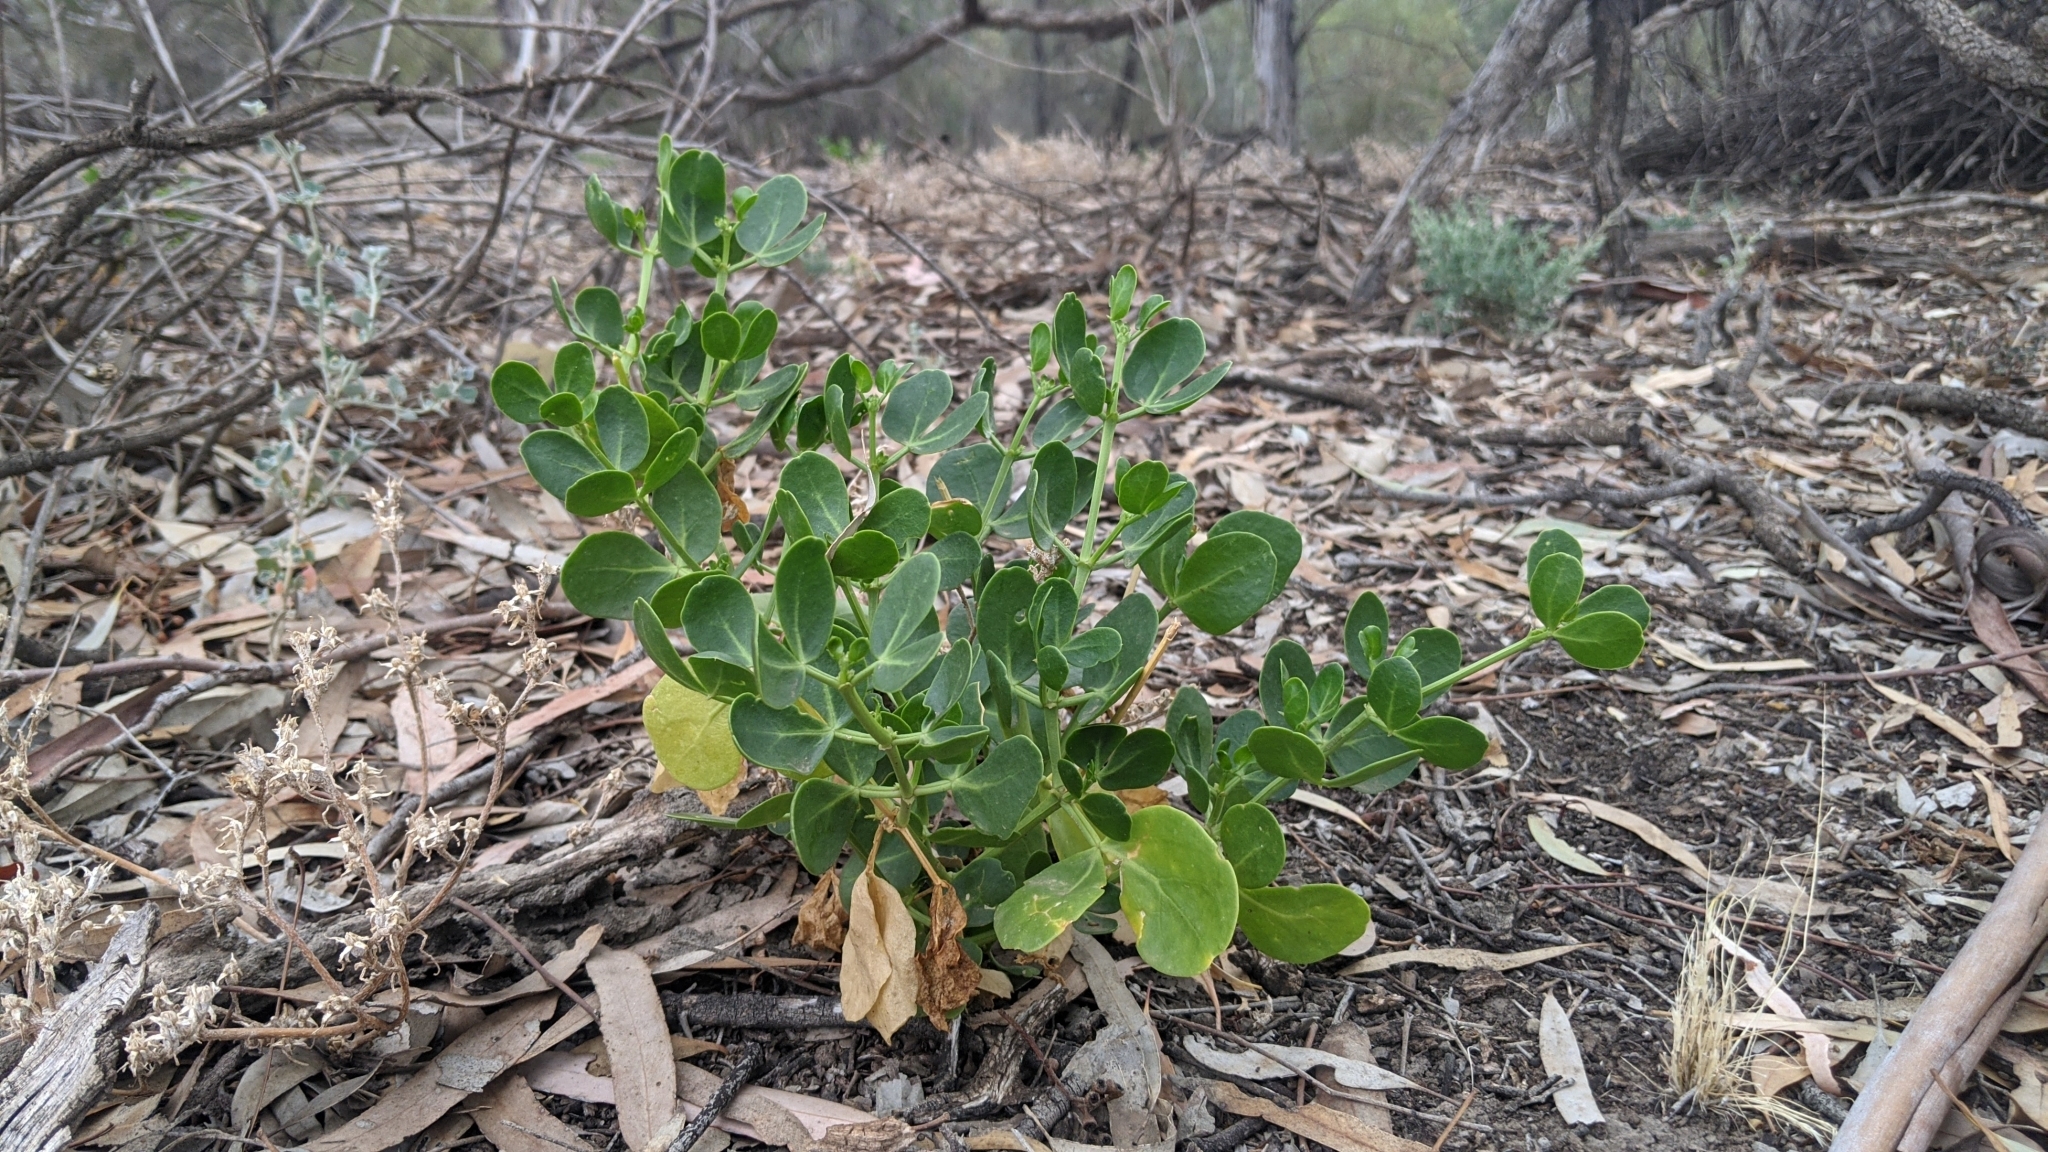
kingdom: Plantae
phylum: Tracheophyta
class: Magnoliopsida
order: Zygophyllales
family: Zygophyllaceae
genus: Roepera
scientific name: Roepera apiculata
